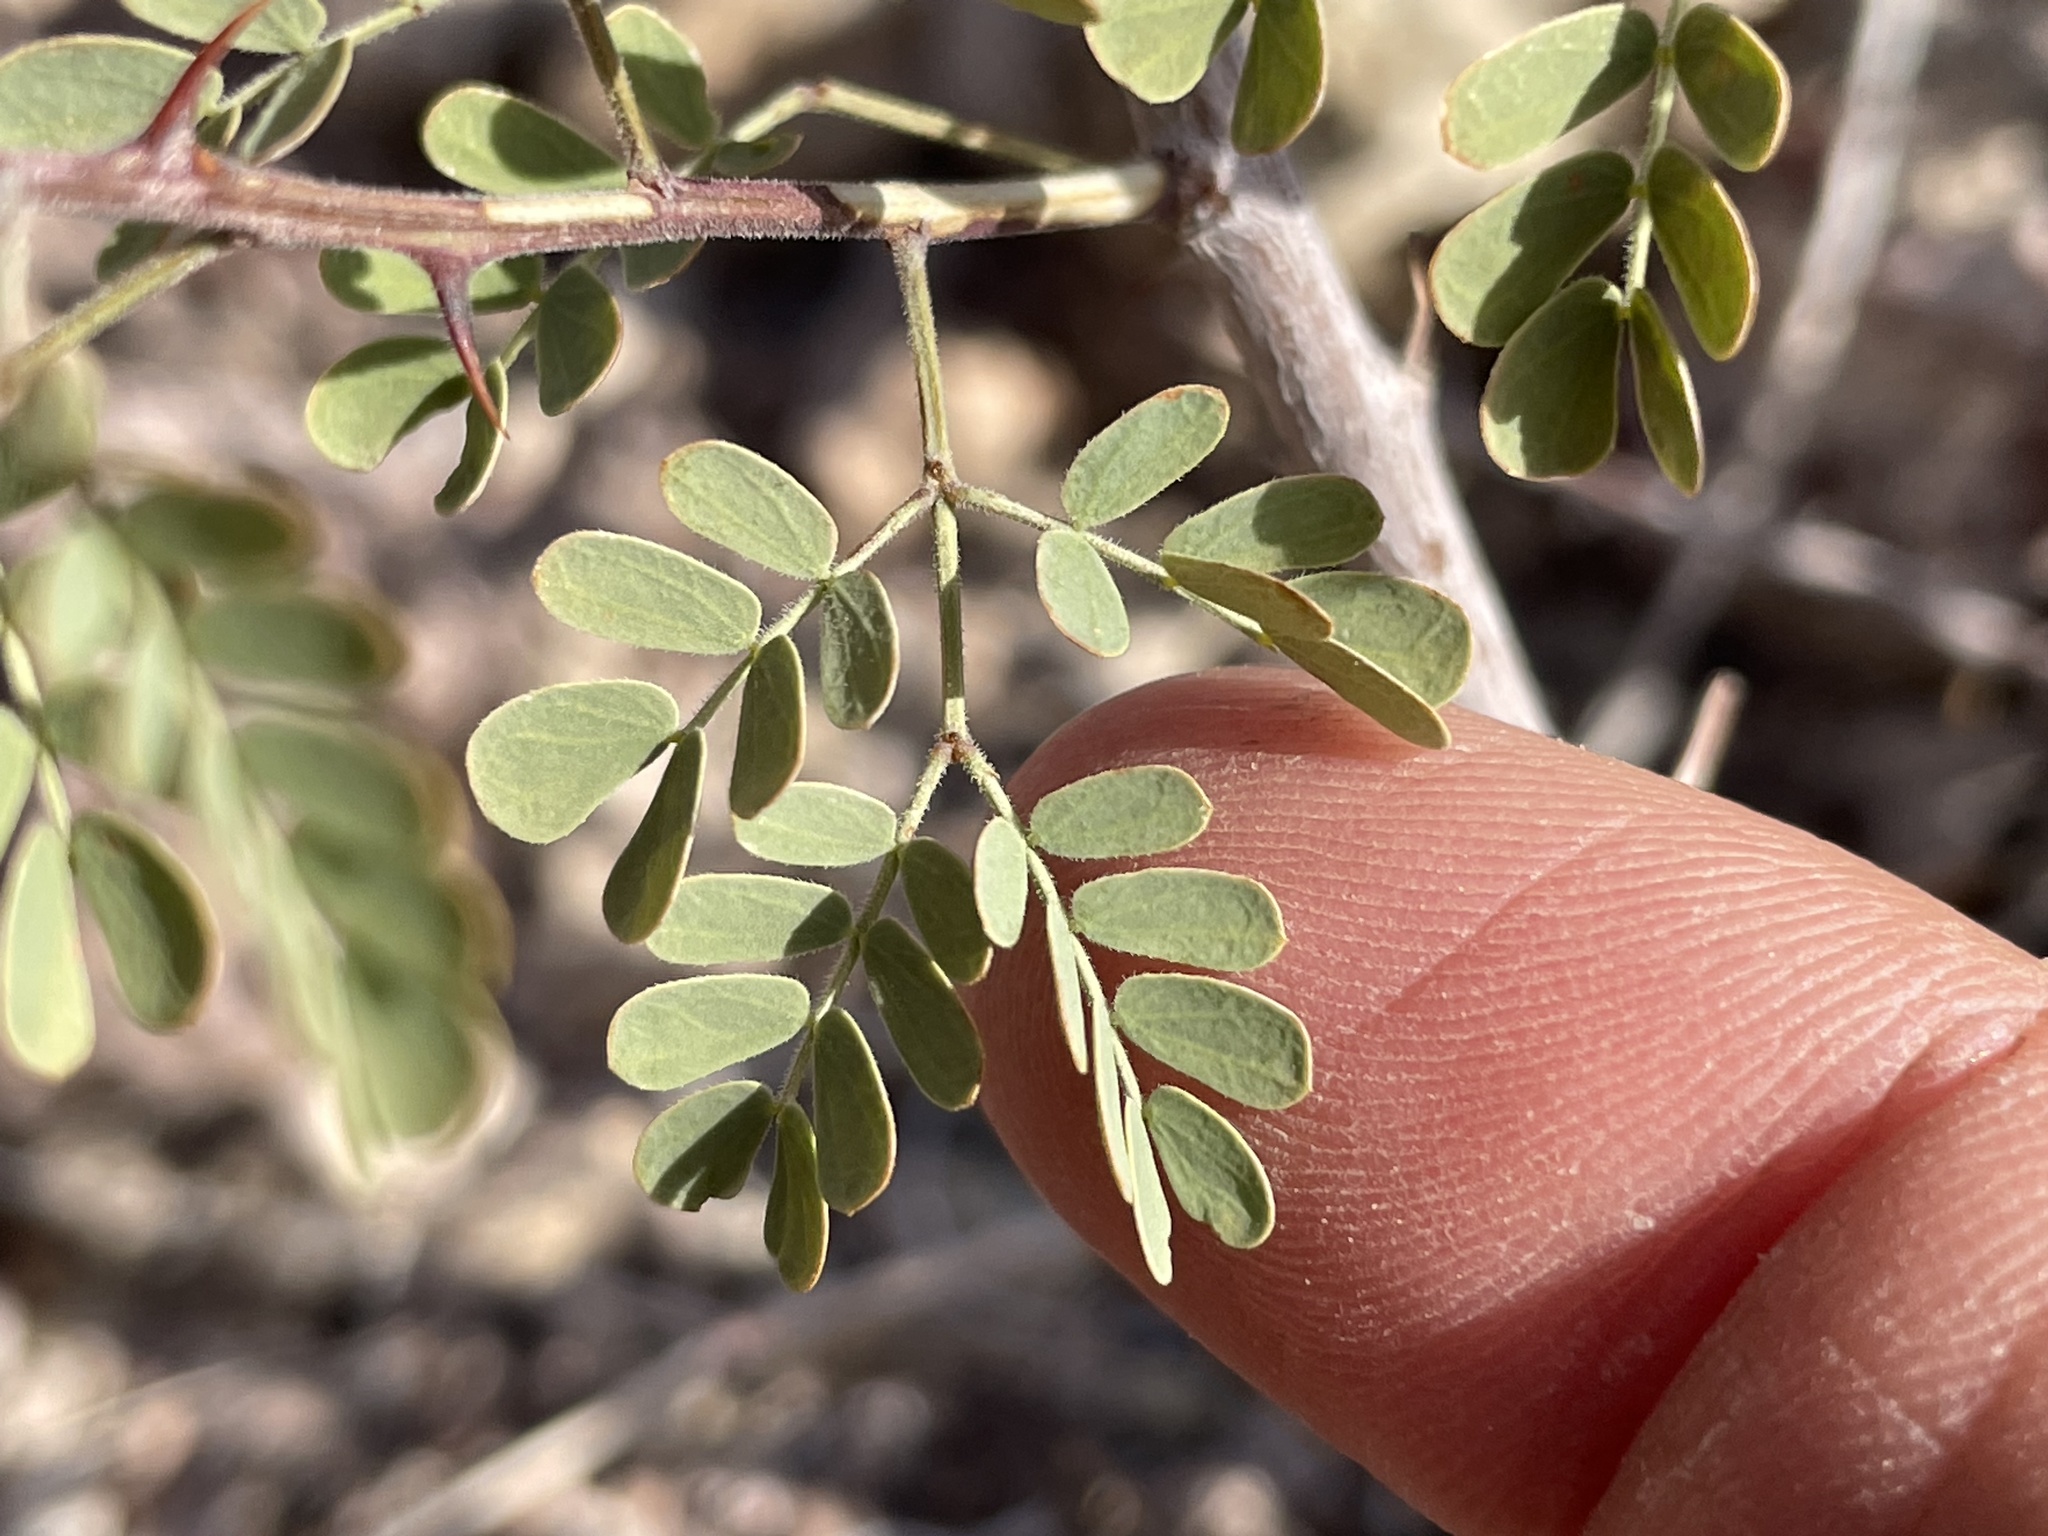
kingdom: Plantae
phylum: Tracheophyta
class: Magnoliopsida
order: Fabales
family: Fabaceae
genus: Senegalia
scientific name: Senegalia greggii
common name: Texas-mimosa
